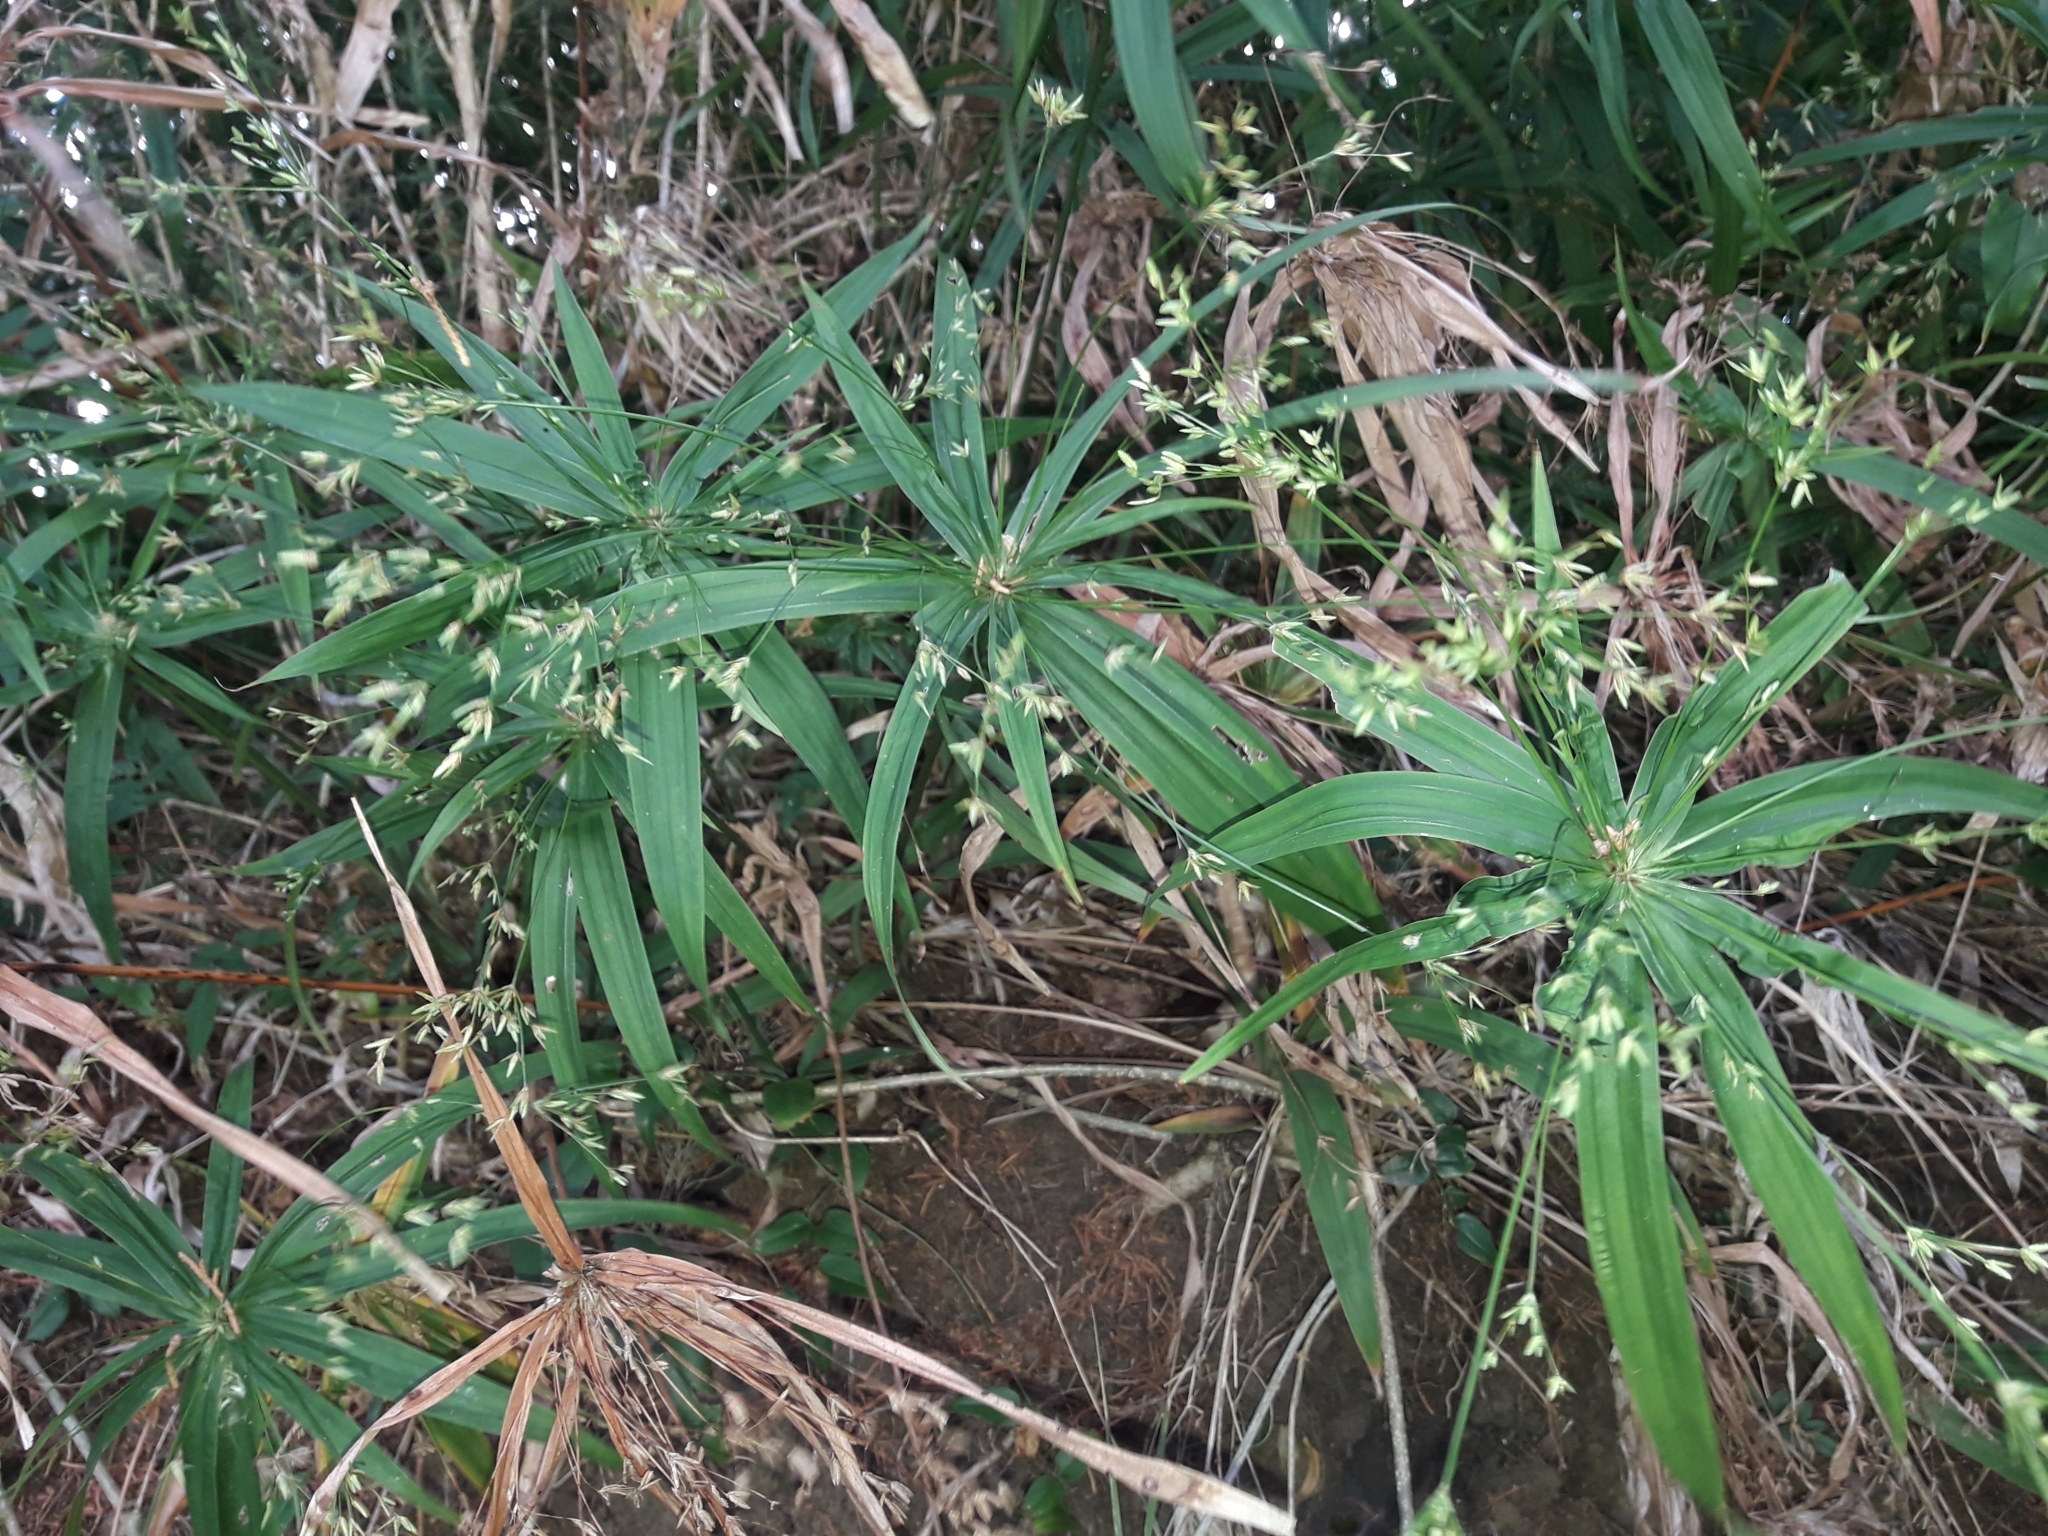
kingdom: Plantae
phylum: Tracheophyta
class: Liliopsida
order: Poales
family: Cyperaceae
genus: Cyperus
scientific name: Cyperus alternifolius
